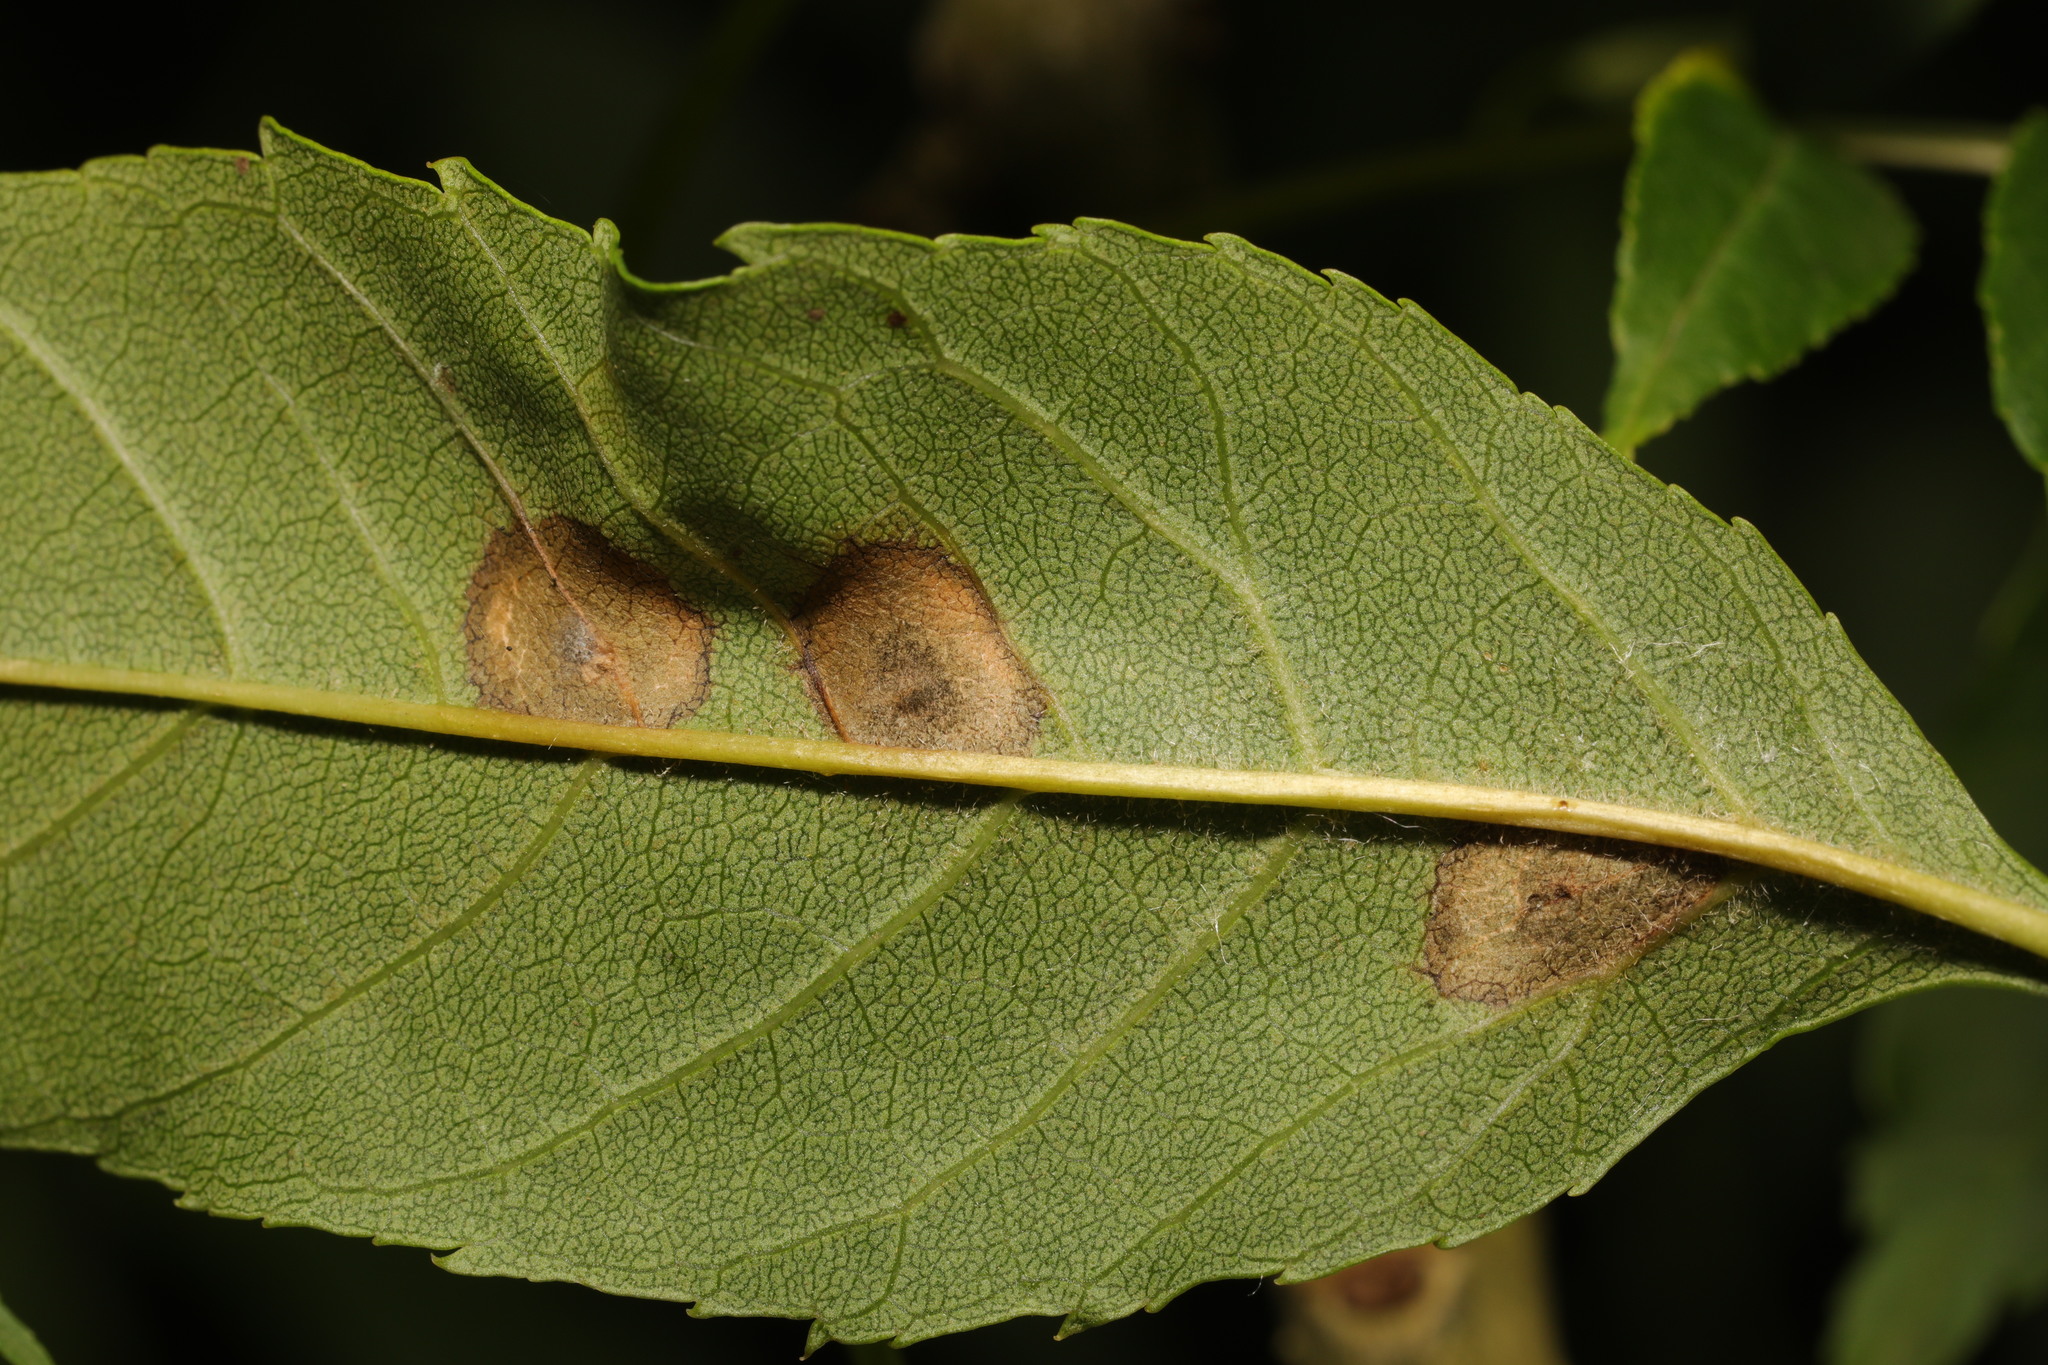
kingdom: Animalia
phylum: Arthropoda
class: Insecta
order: Diptera
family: Cecidomyiidae
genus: Dasineura
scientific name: Dasineura fraxinea
